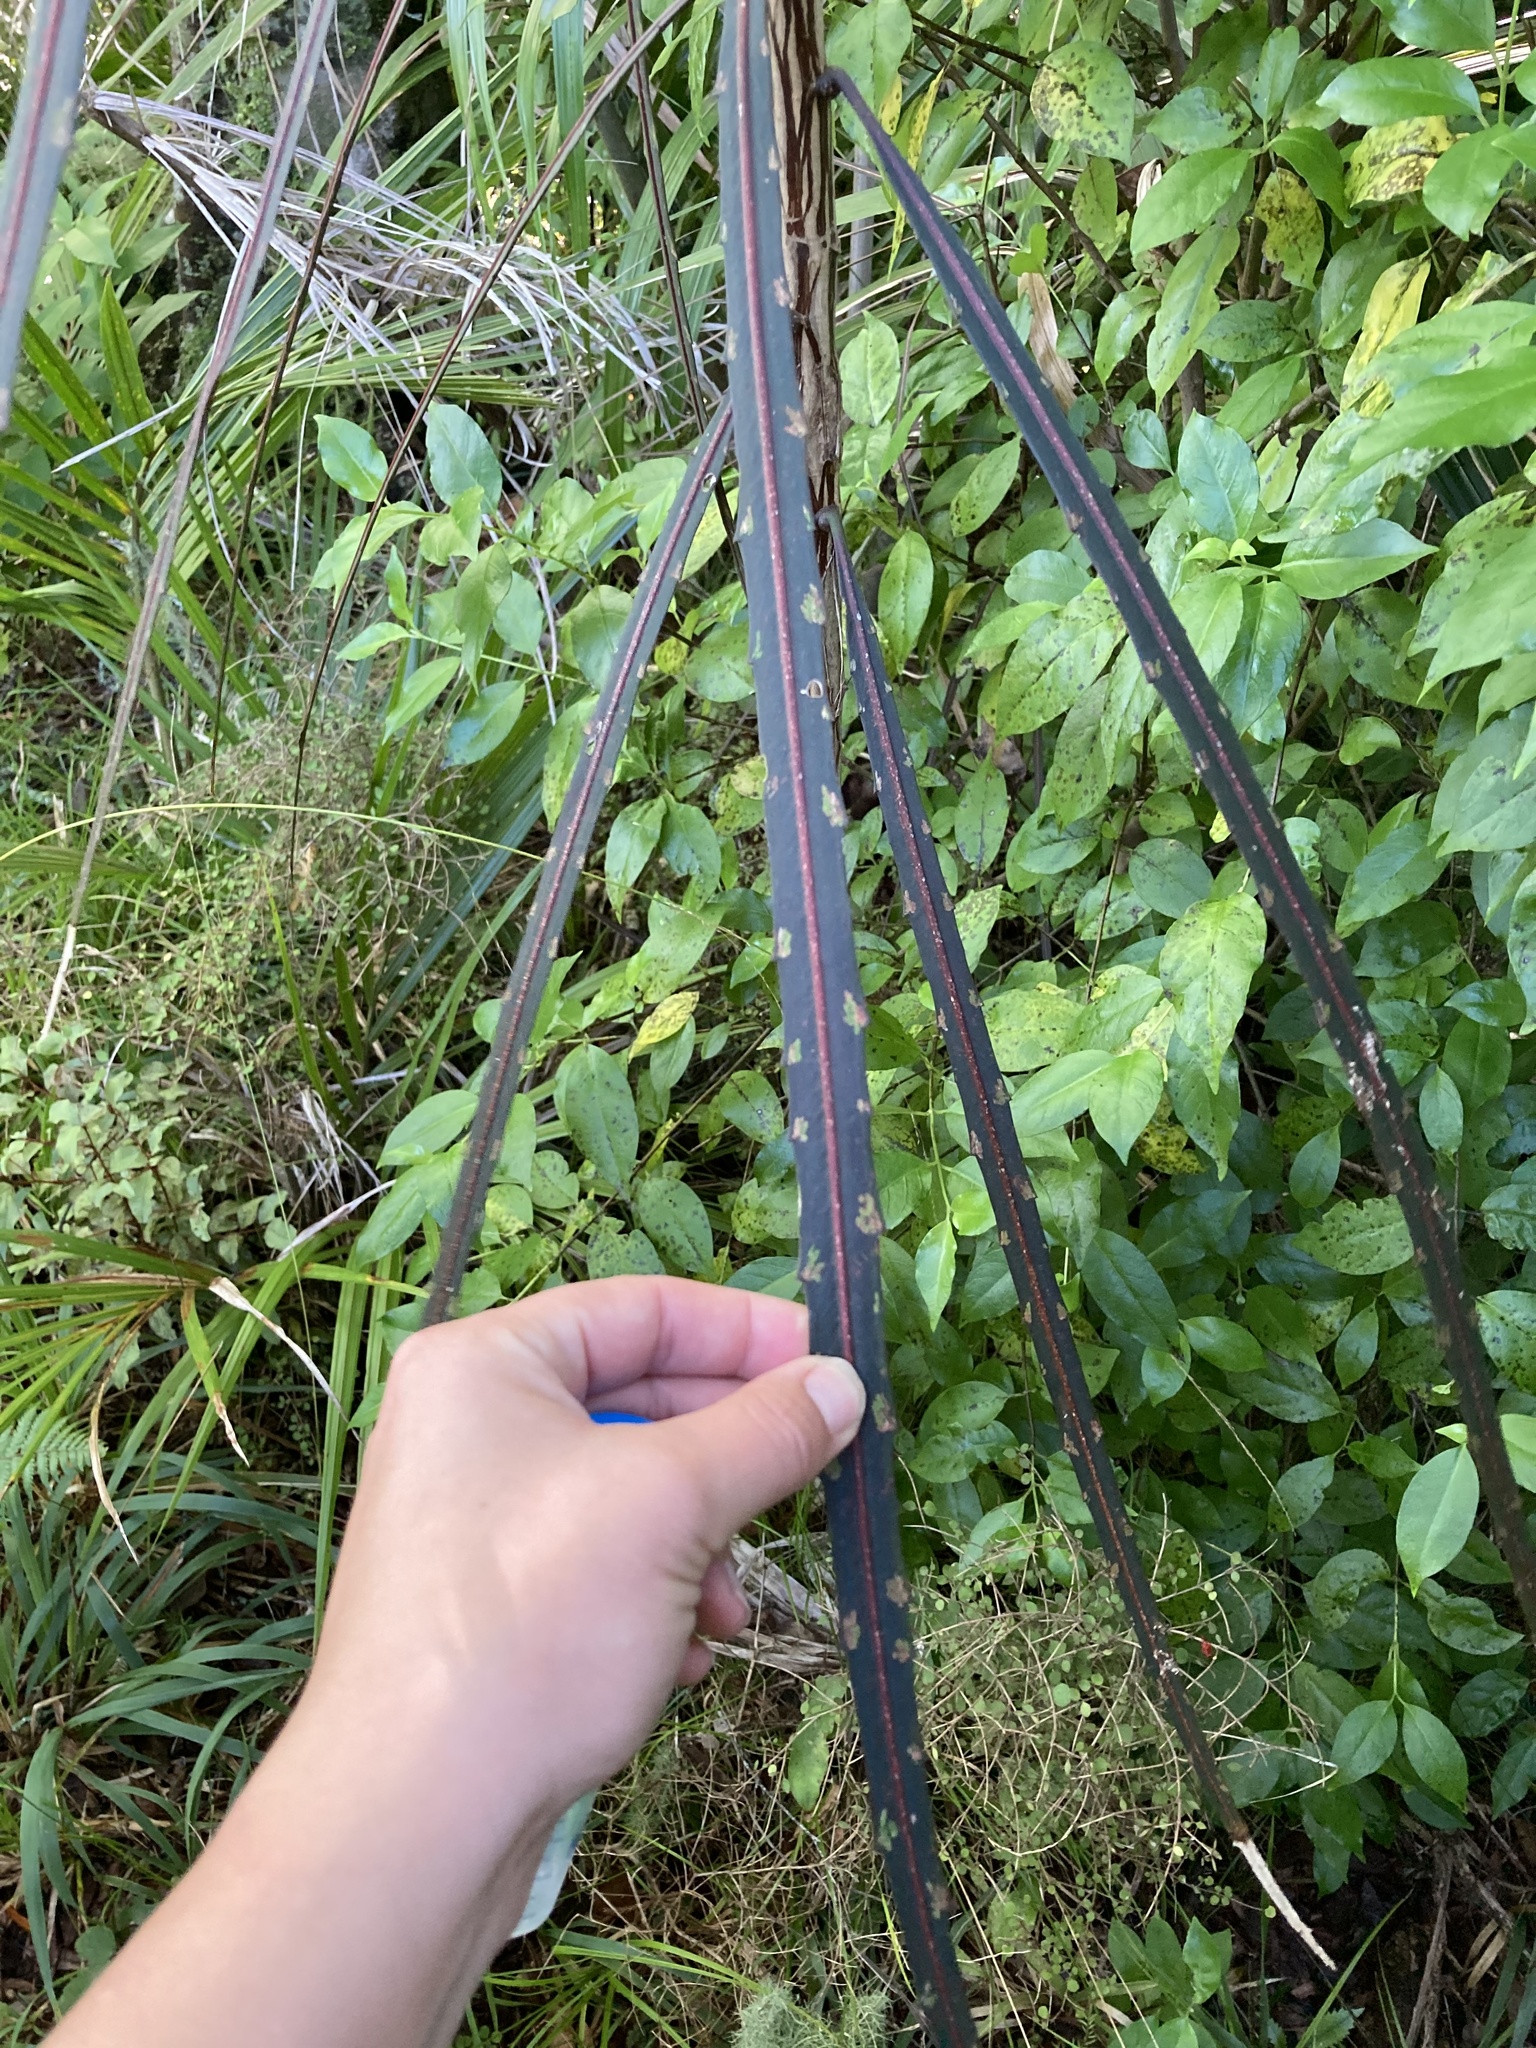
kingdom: Plantae
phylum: Tracheophyta
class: Magnoliopsida
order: Apiales
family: Araliaceae
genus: Pseudopanax
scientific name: Pseudopanax crassifolius
